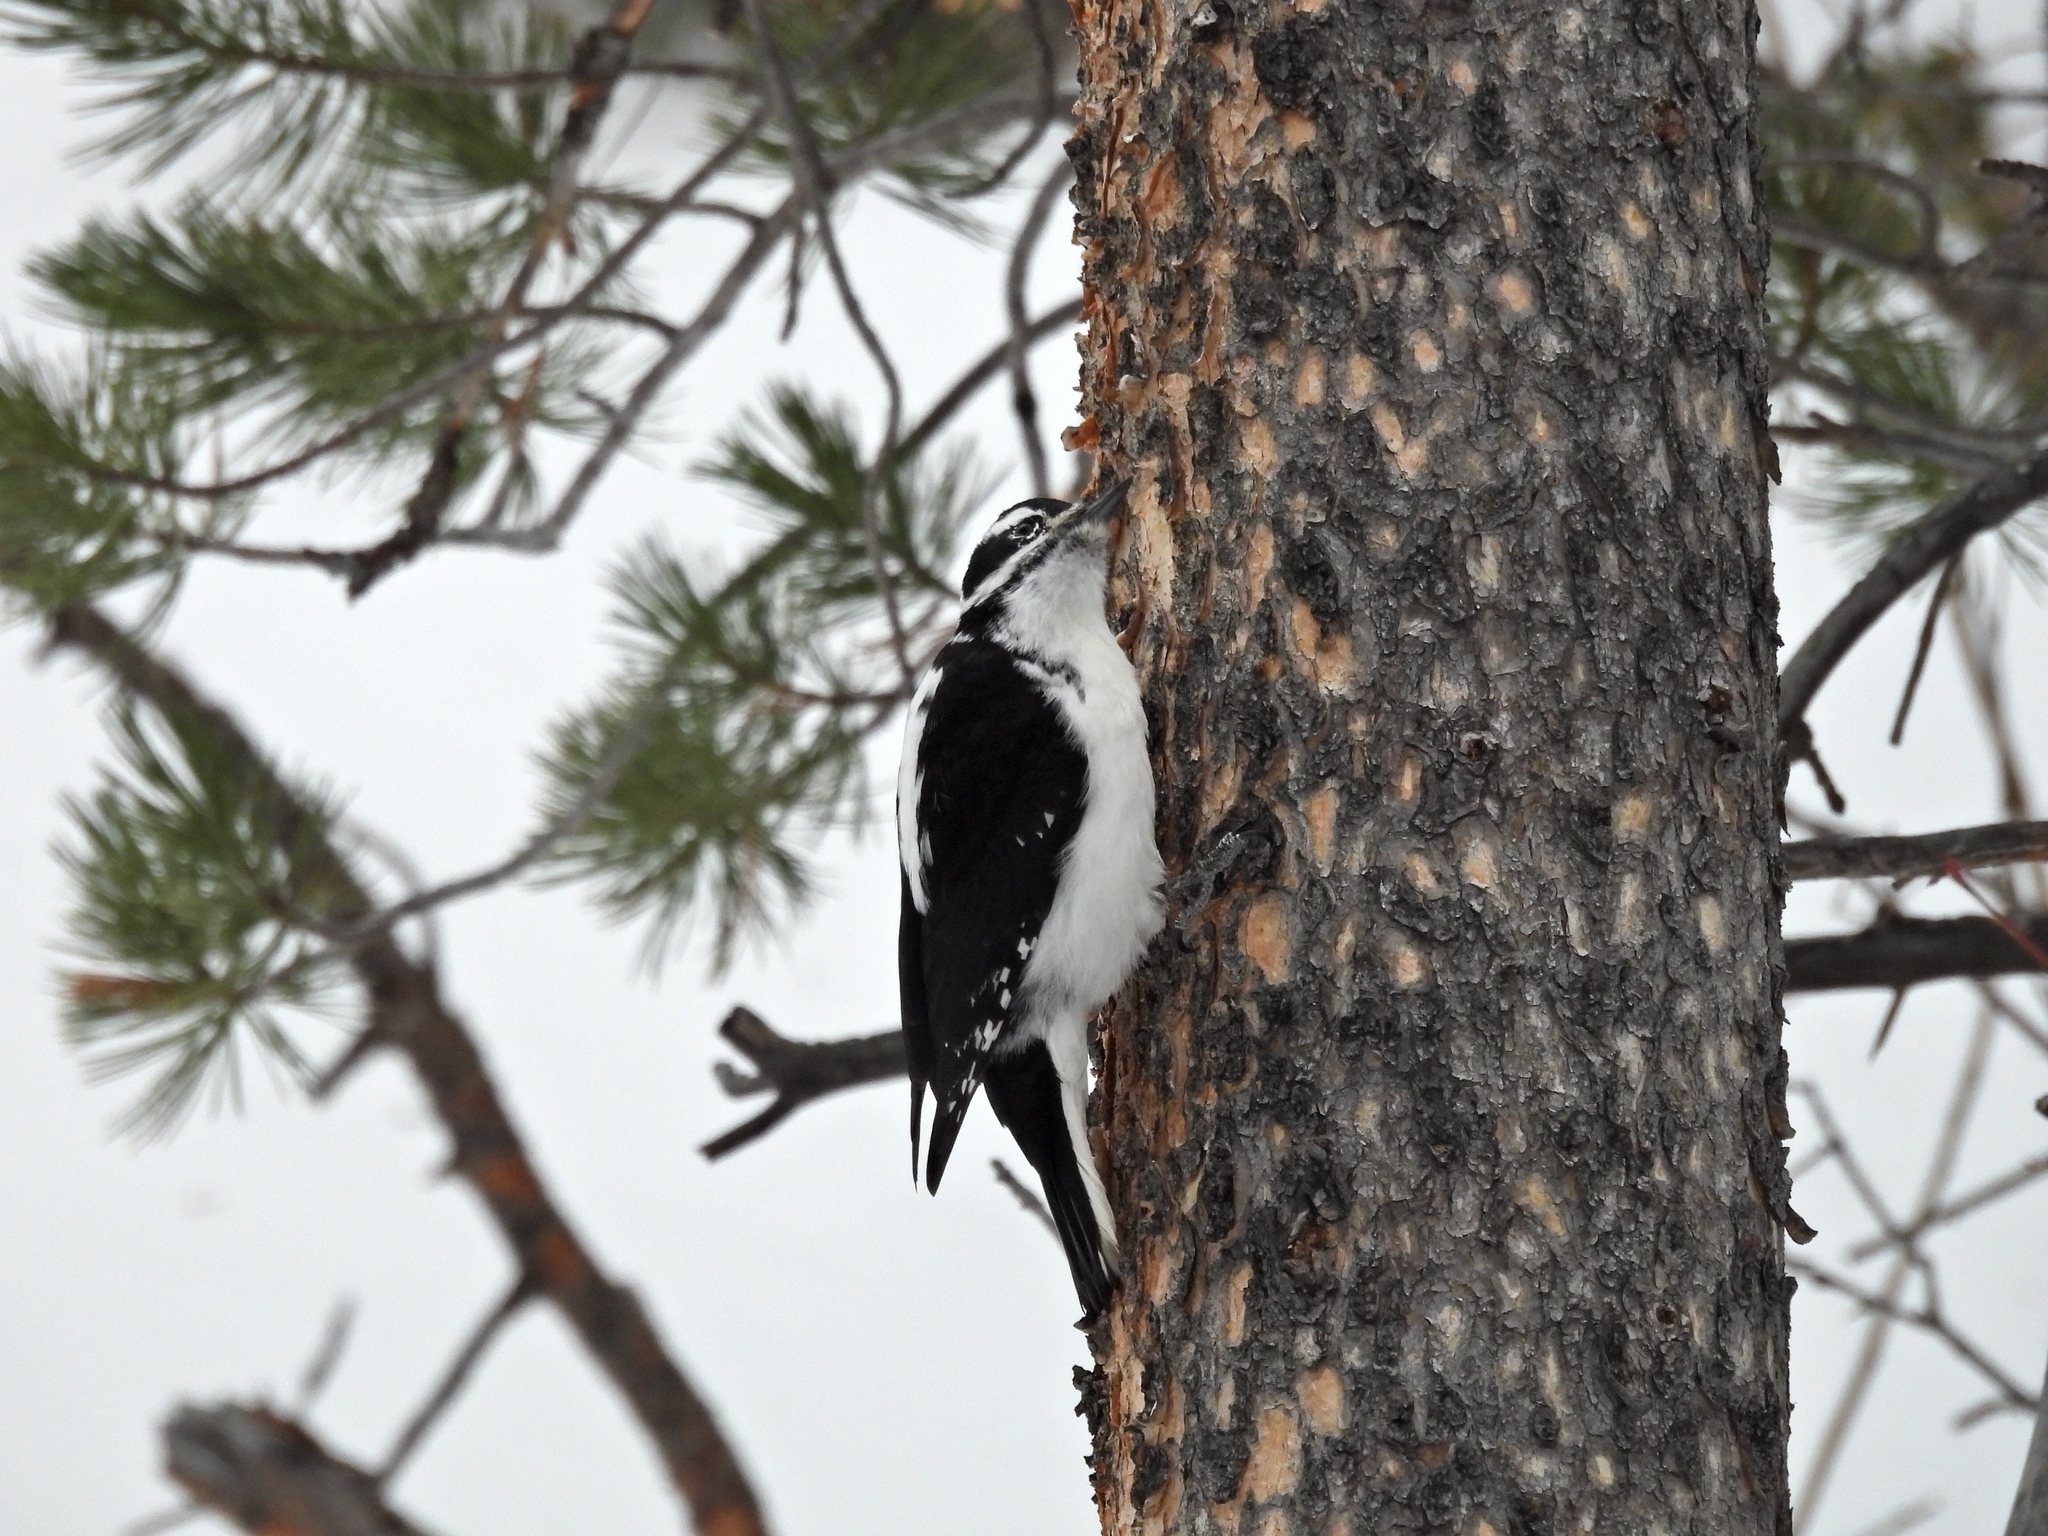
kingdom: Animalia
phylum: Chordata
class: Aves
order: Piciformes
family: Picidae
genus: Leuconotopicus
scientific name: Leuconotopicus villosus
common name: Hairy woodpecker
